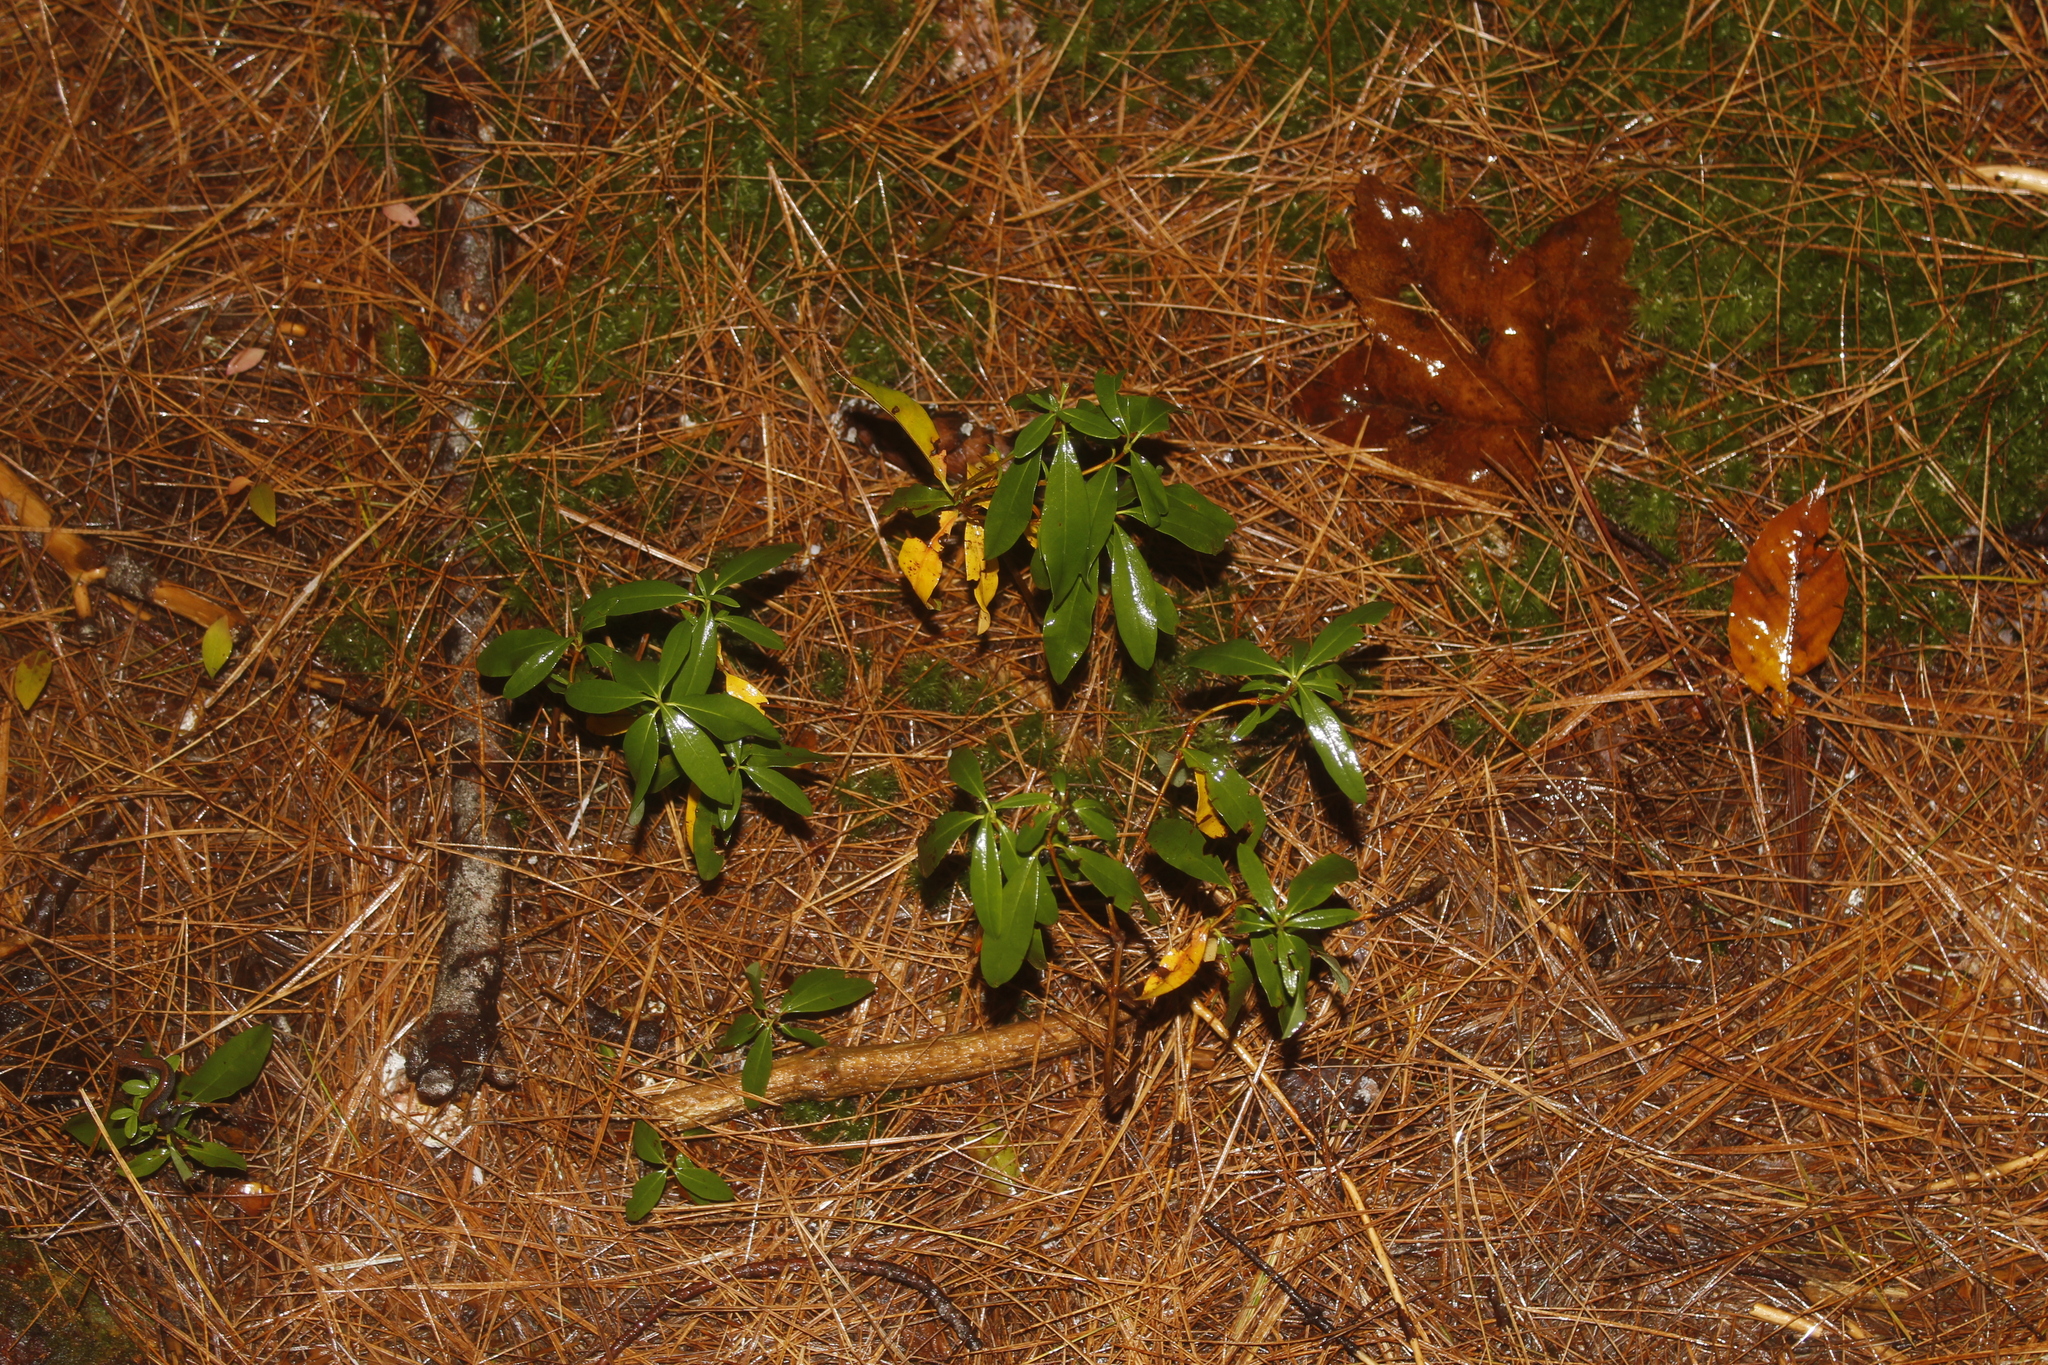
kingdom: Plantae
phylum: Tracheophyta
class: Magnoliopsida
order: Ericales
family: Ericaceae
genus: Kalmia
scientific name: Kalmia angustifolia
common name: Sheep-laurel
